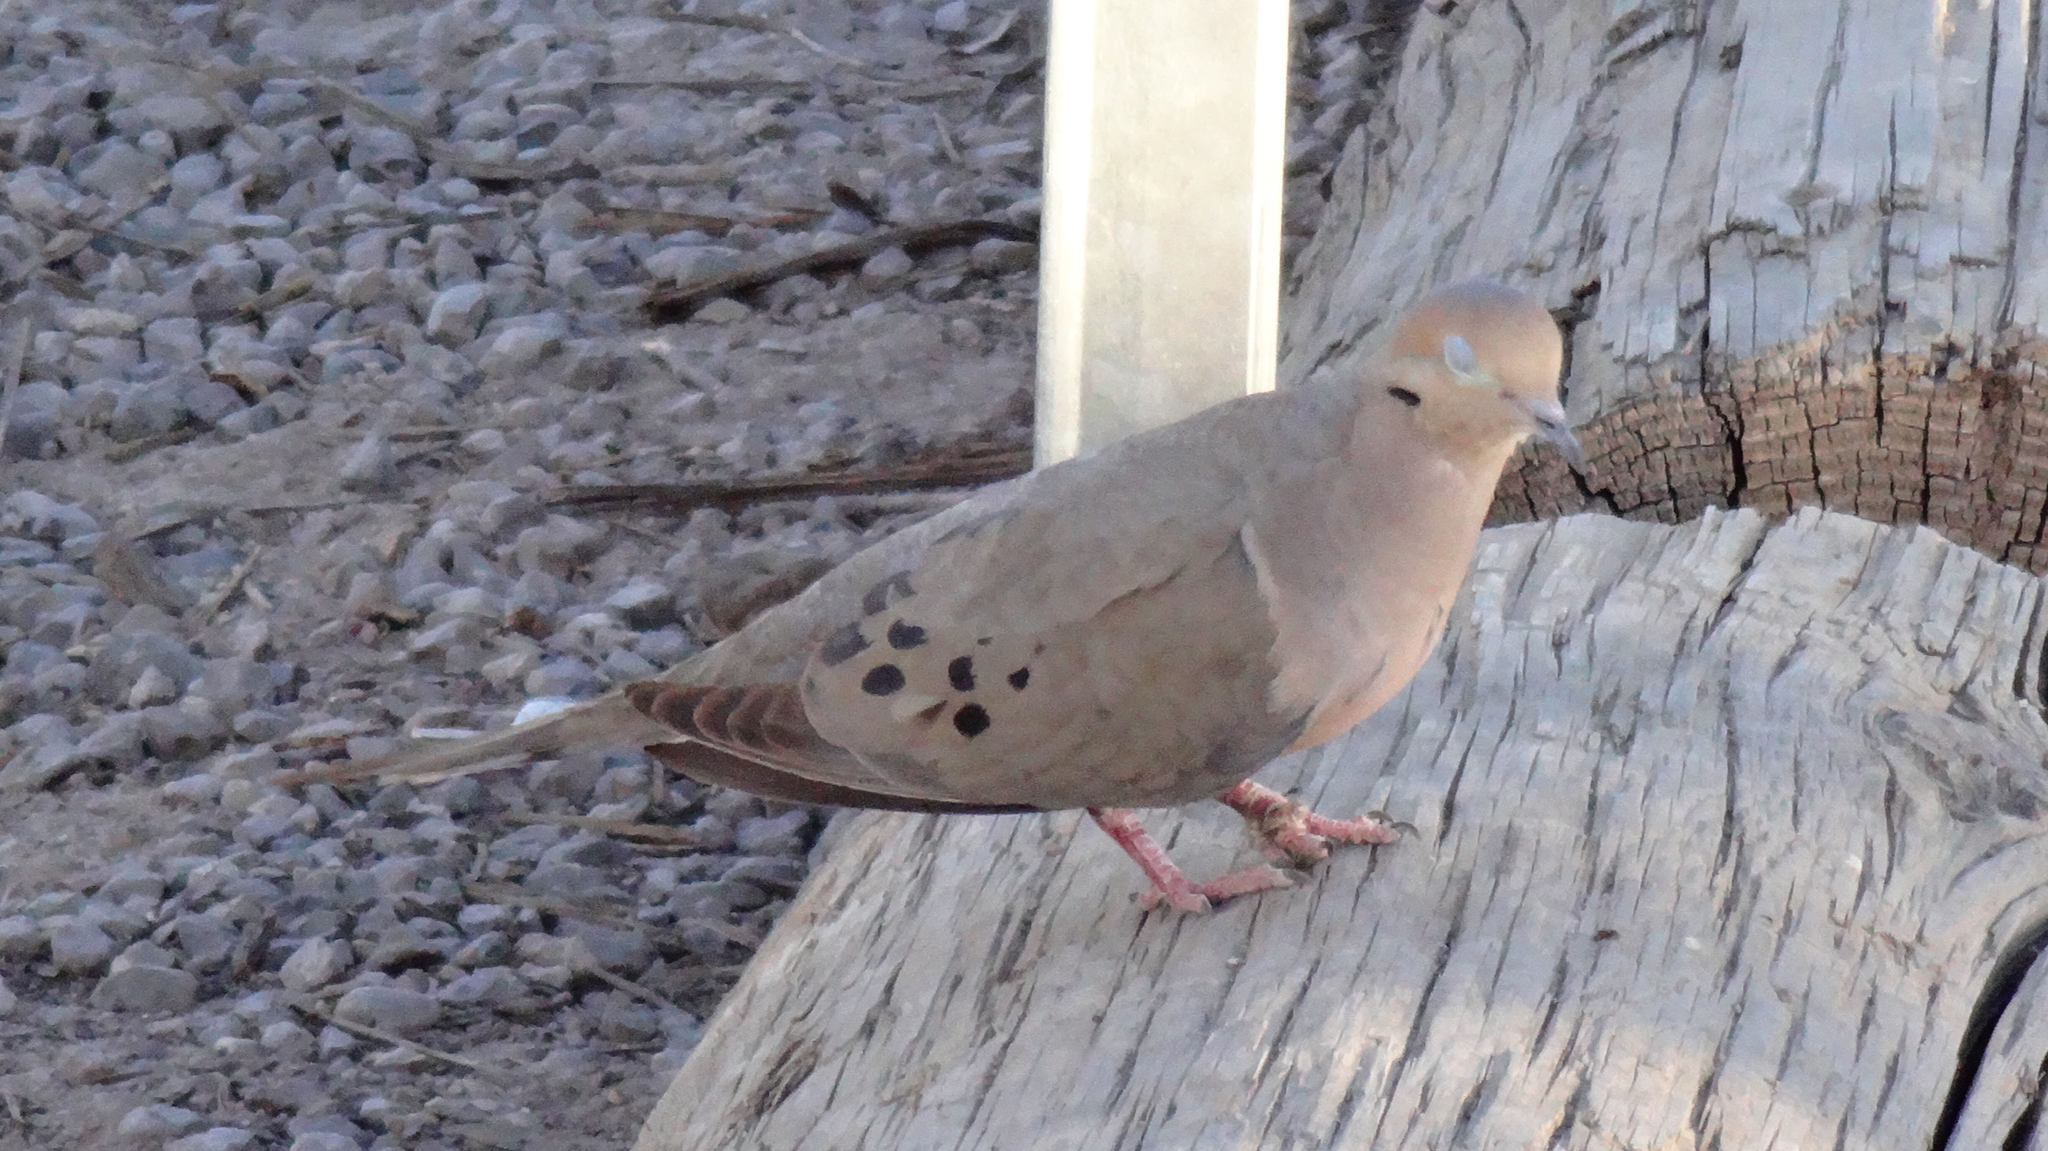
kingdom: Animalia
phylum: Chordata
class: Aves
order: Columbiformes
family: Columbidae
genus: Zenaida
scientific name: Zenaida macroura
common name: Mourning dove
